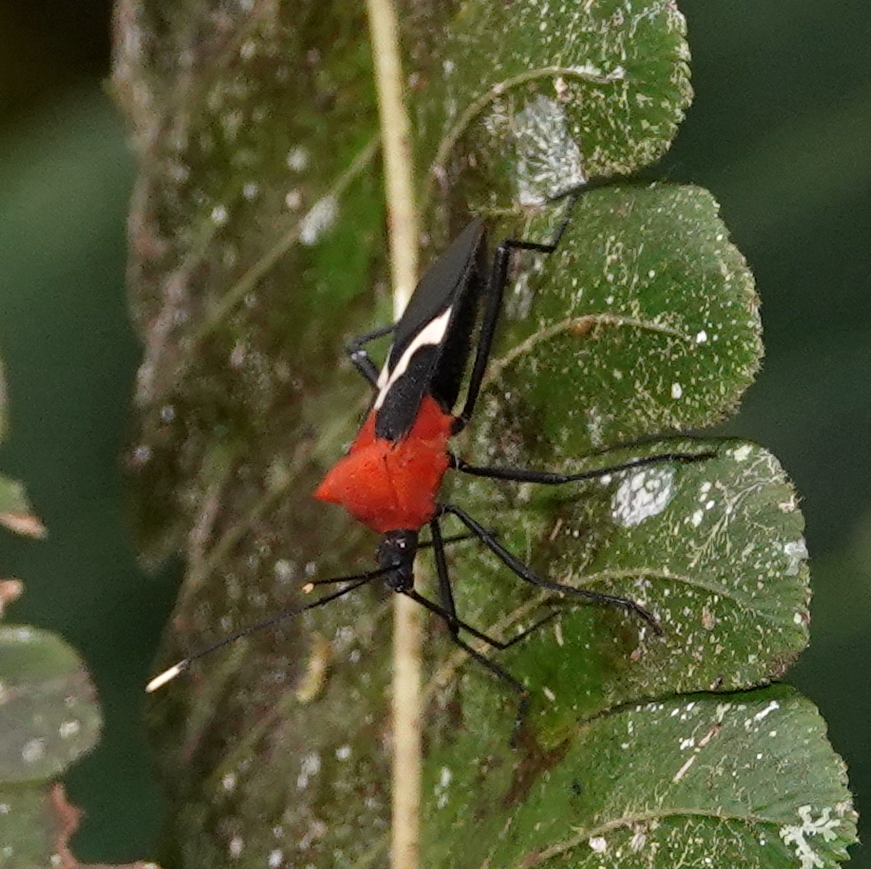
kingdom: Animalia
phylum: Arthropoda
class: Insecta
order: Hemiptera
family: Coreidae
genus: Leptoscelis
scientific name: Leptoscelis militaris
